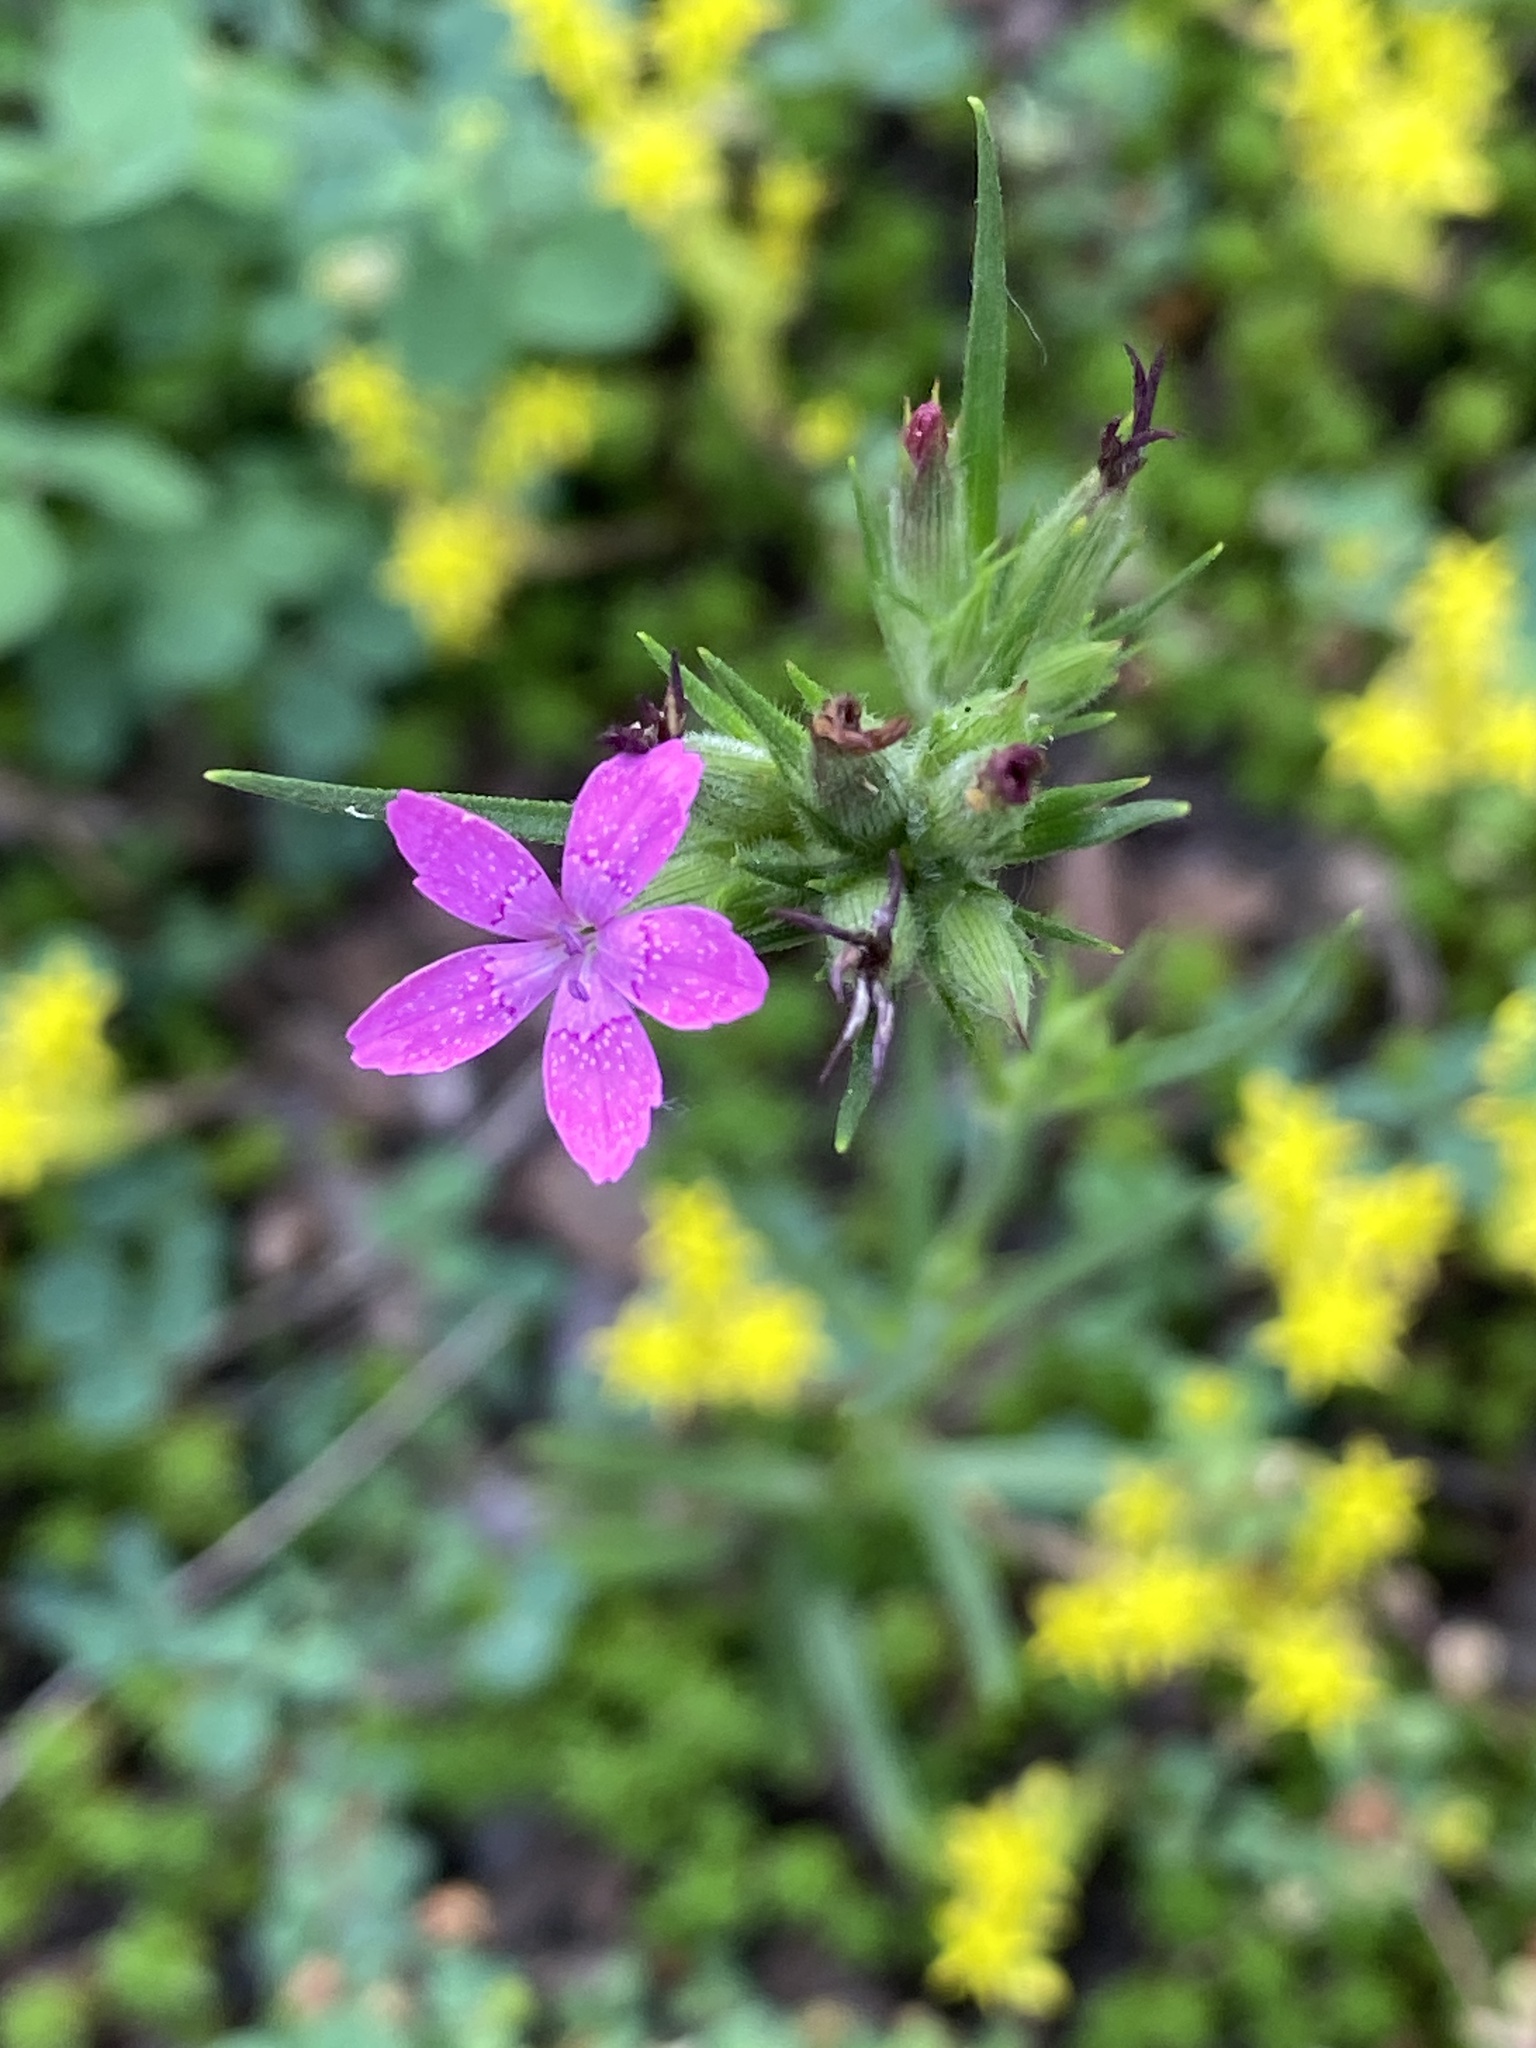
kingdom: Plantae
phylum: Tracheophyta
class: Magnoliopsida
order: Caryophyllales
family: Caryophyllaceae
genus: Dianthus
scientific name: Dianthus armeria
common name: Deptford pink
